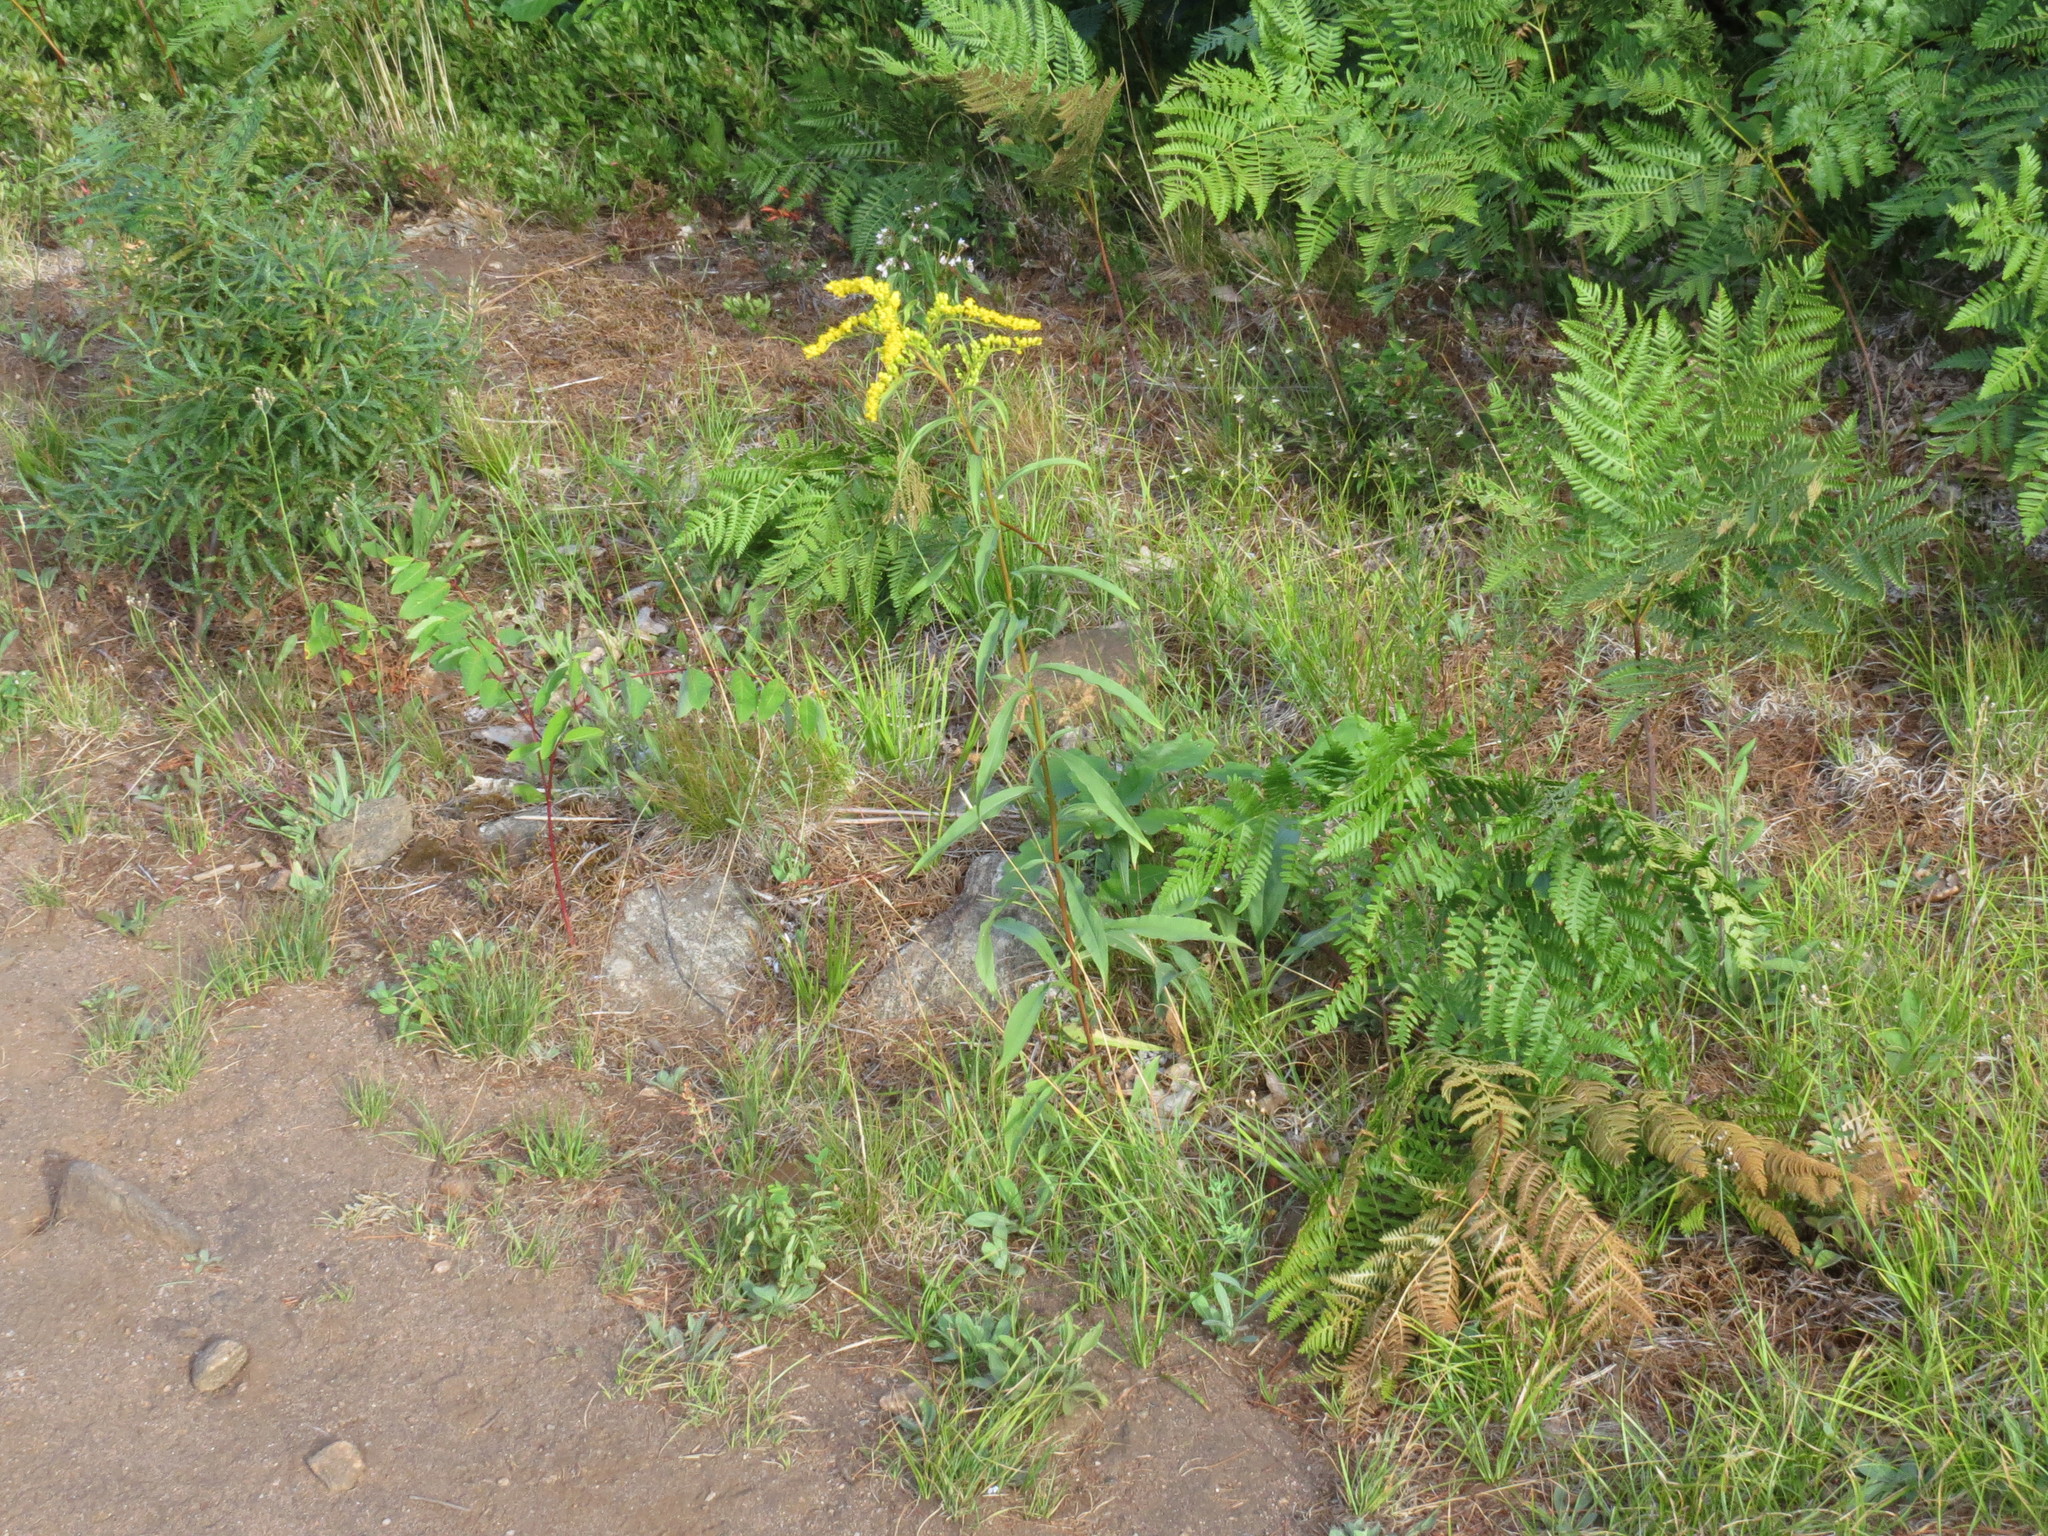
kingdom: Plantae
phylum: Tracheophyta
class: Magnoliopsida
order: Asterales
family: Asteraceae
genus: Solidago
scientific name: Solidago juncea
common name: Early goldenrod
